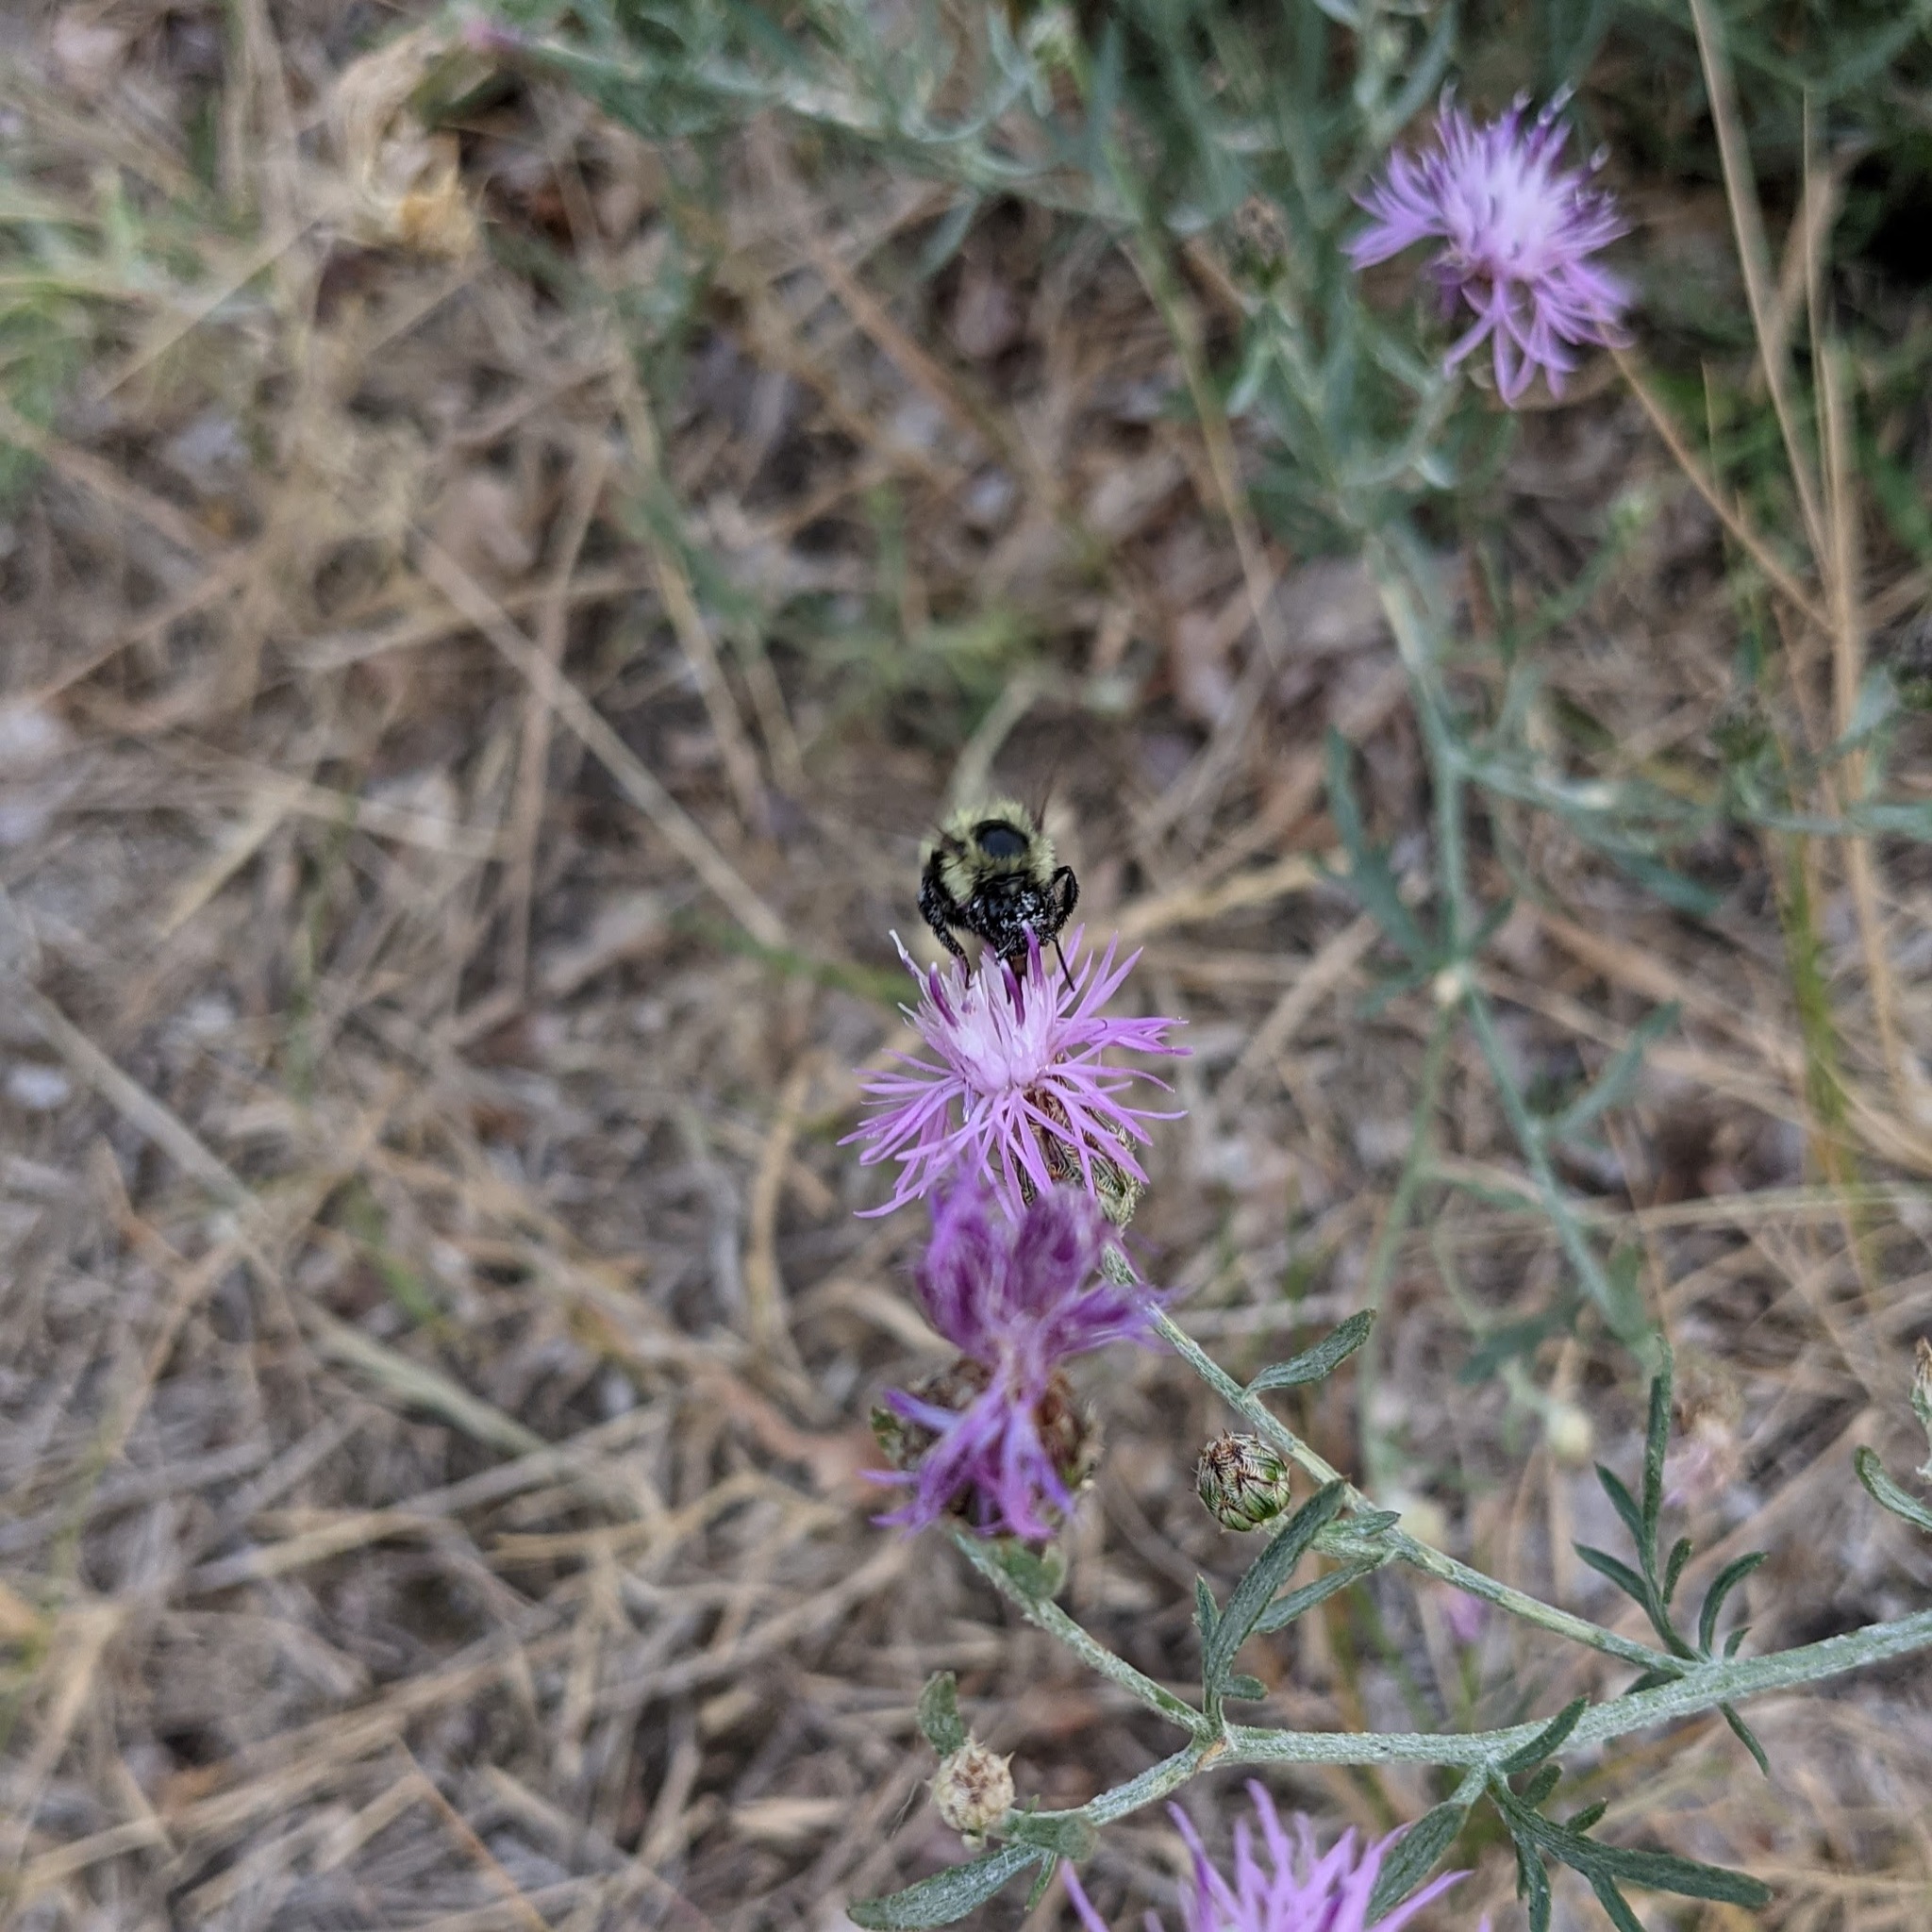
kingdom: Animalia
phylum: Arthropoda
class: Insecta
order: Hymenoptera
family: Apidae
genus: Bombus
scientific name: Bombus vagans
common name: Half-black bumble bee
